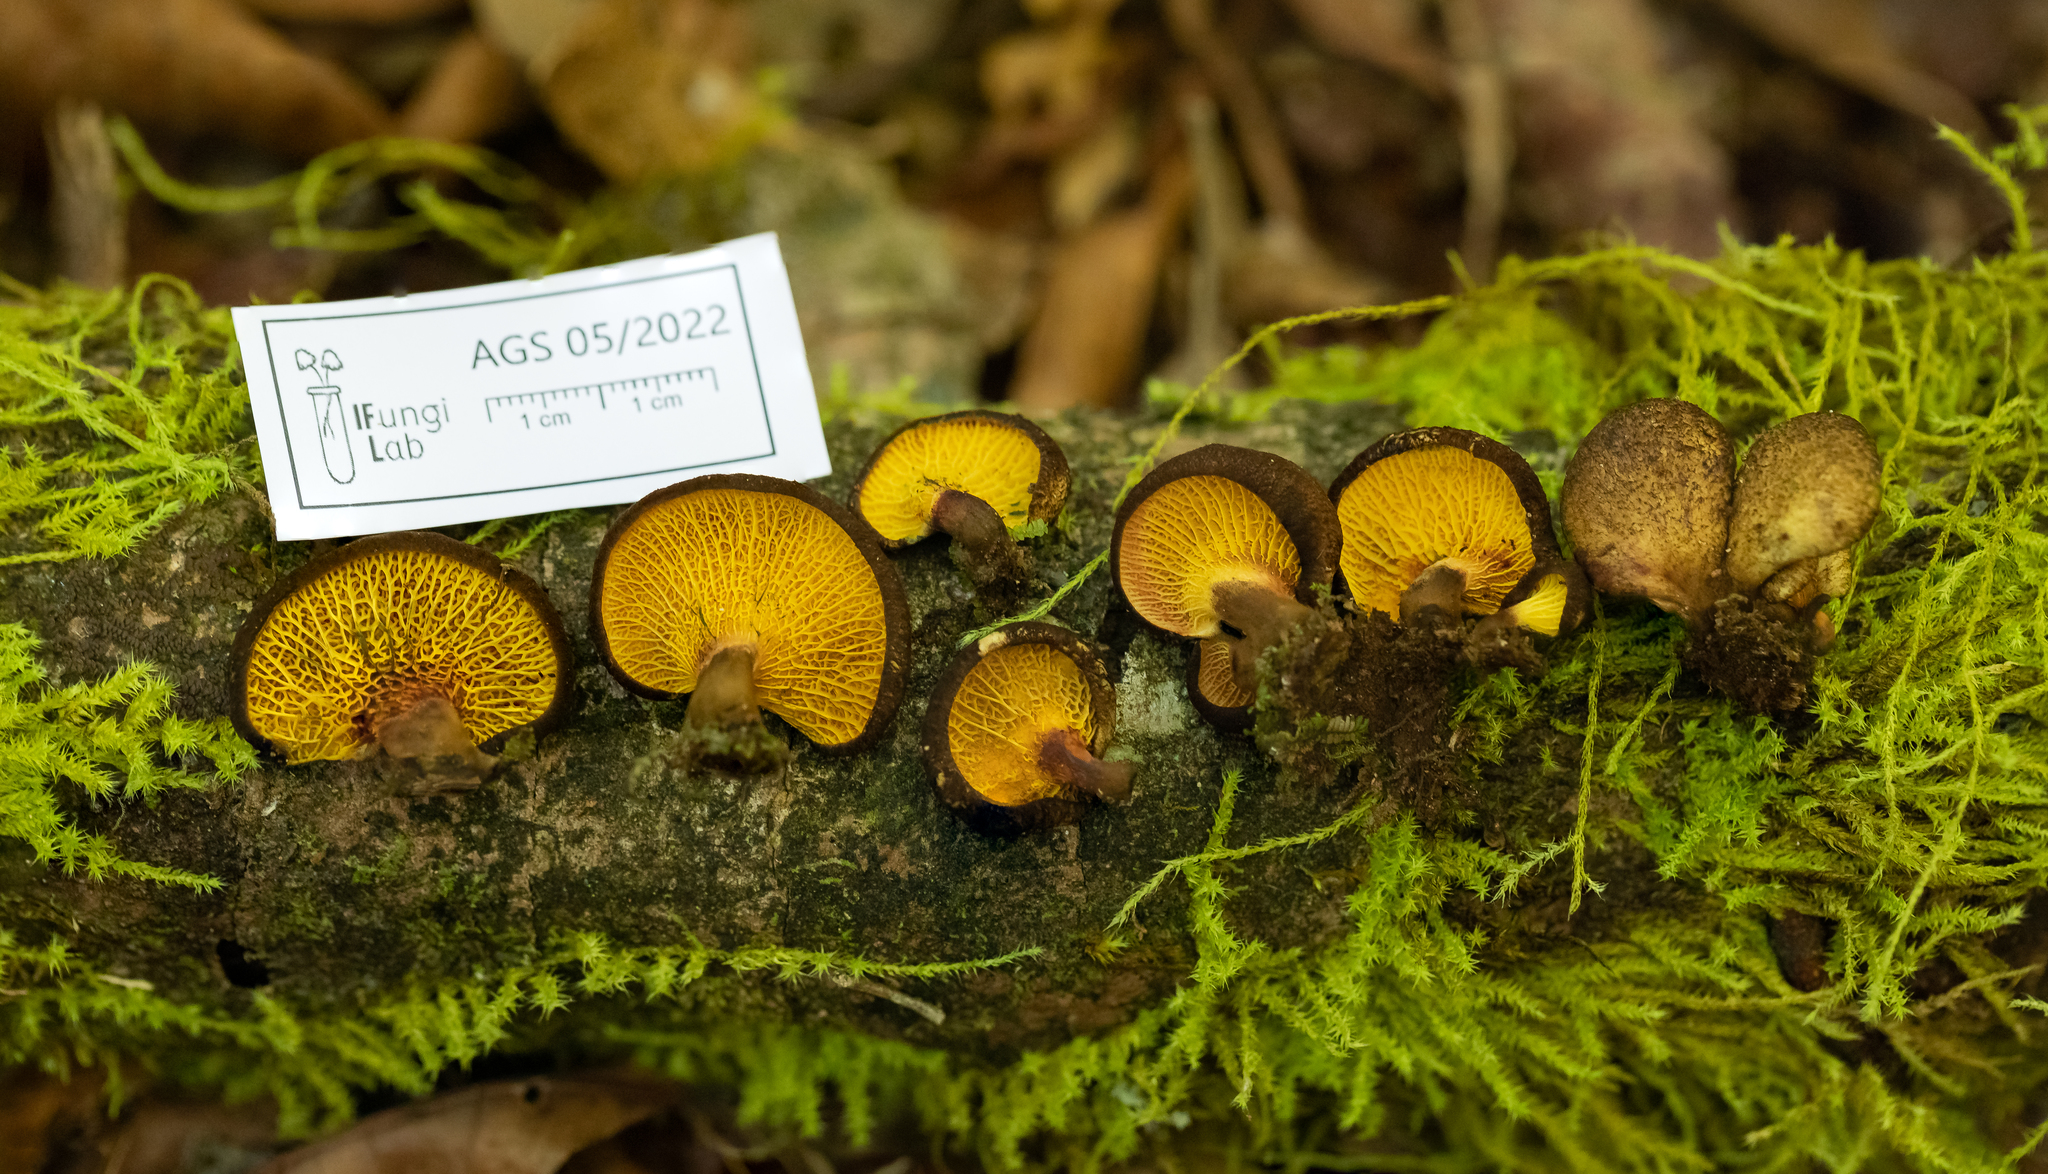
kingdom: Fungi
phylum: Basidiomycota
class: Agaricomycetes
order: Boletales
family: Boletinellaceae
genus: Boletinellus
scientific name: Boletinellus exiguus
